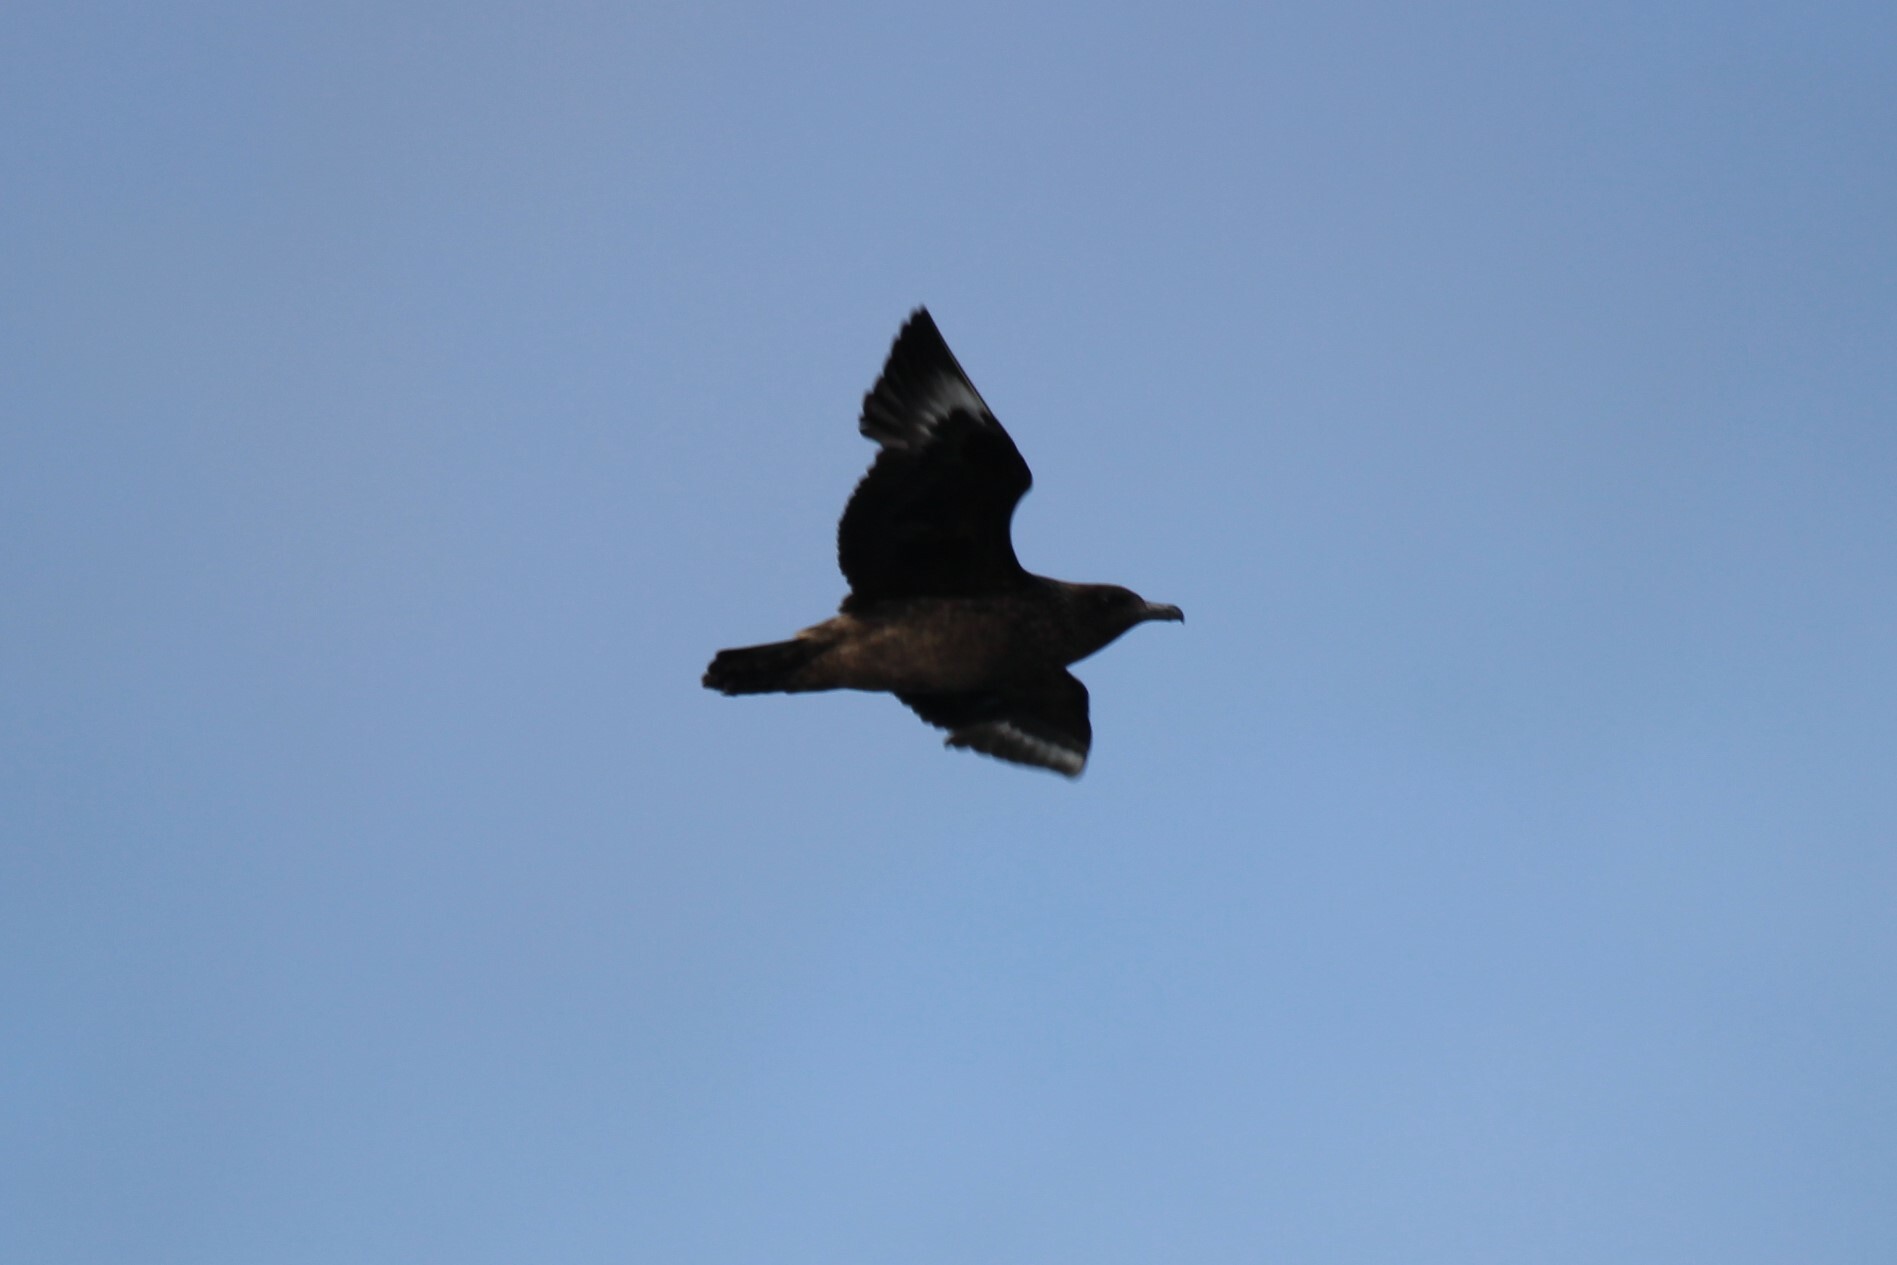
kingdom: Animalia
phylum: Chordata
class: Aves
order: Charadriiformes
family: Stercorariidae
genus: Stercorarius
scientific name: Stercorarius skua
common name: Great skua
